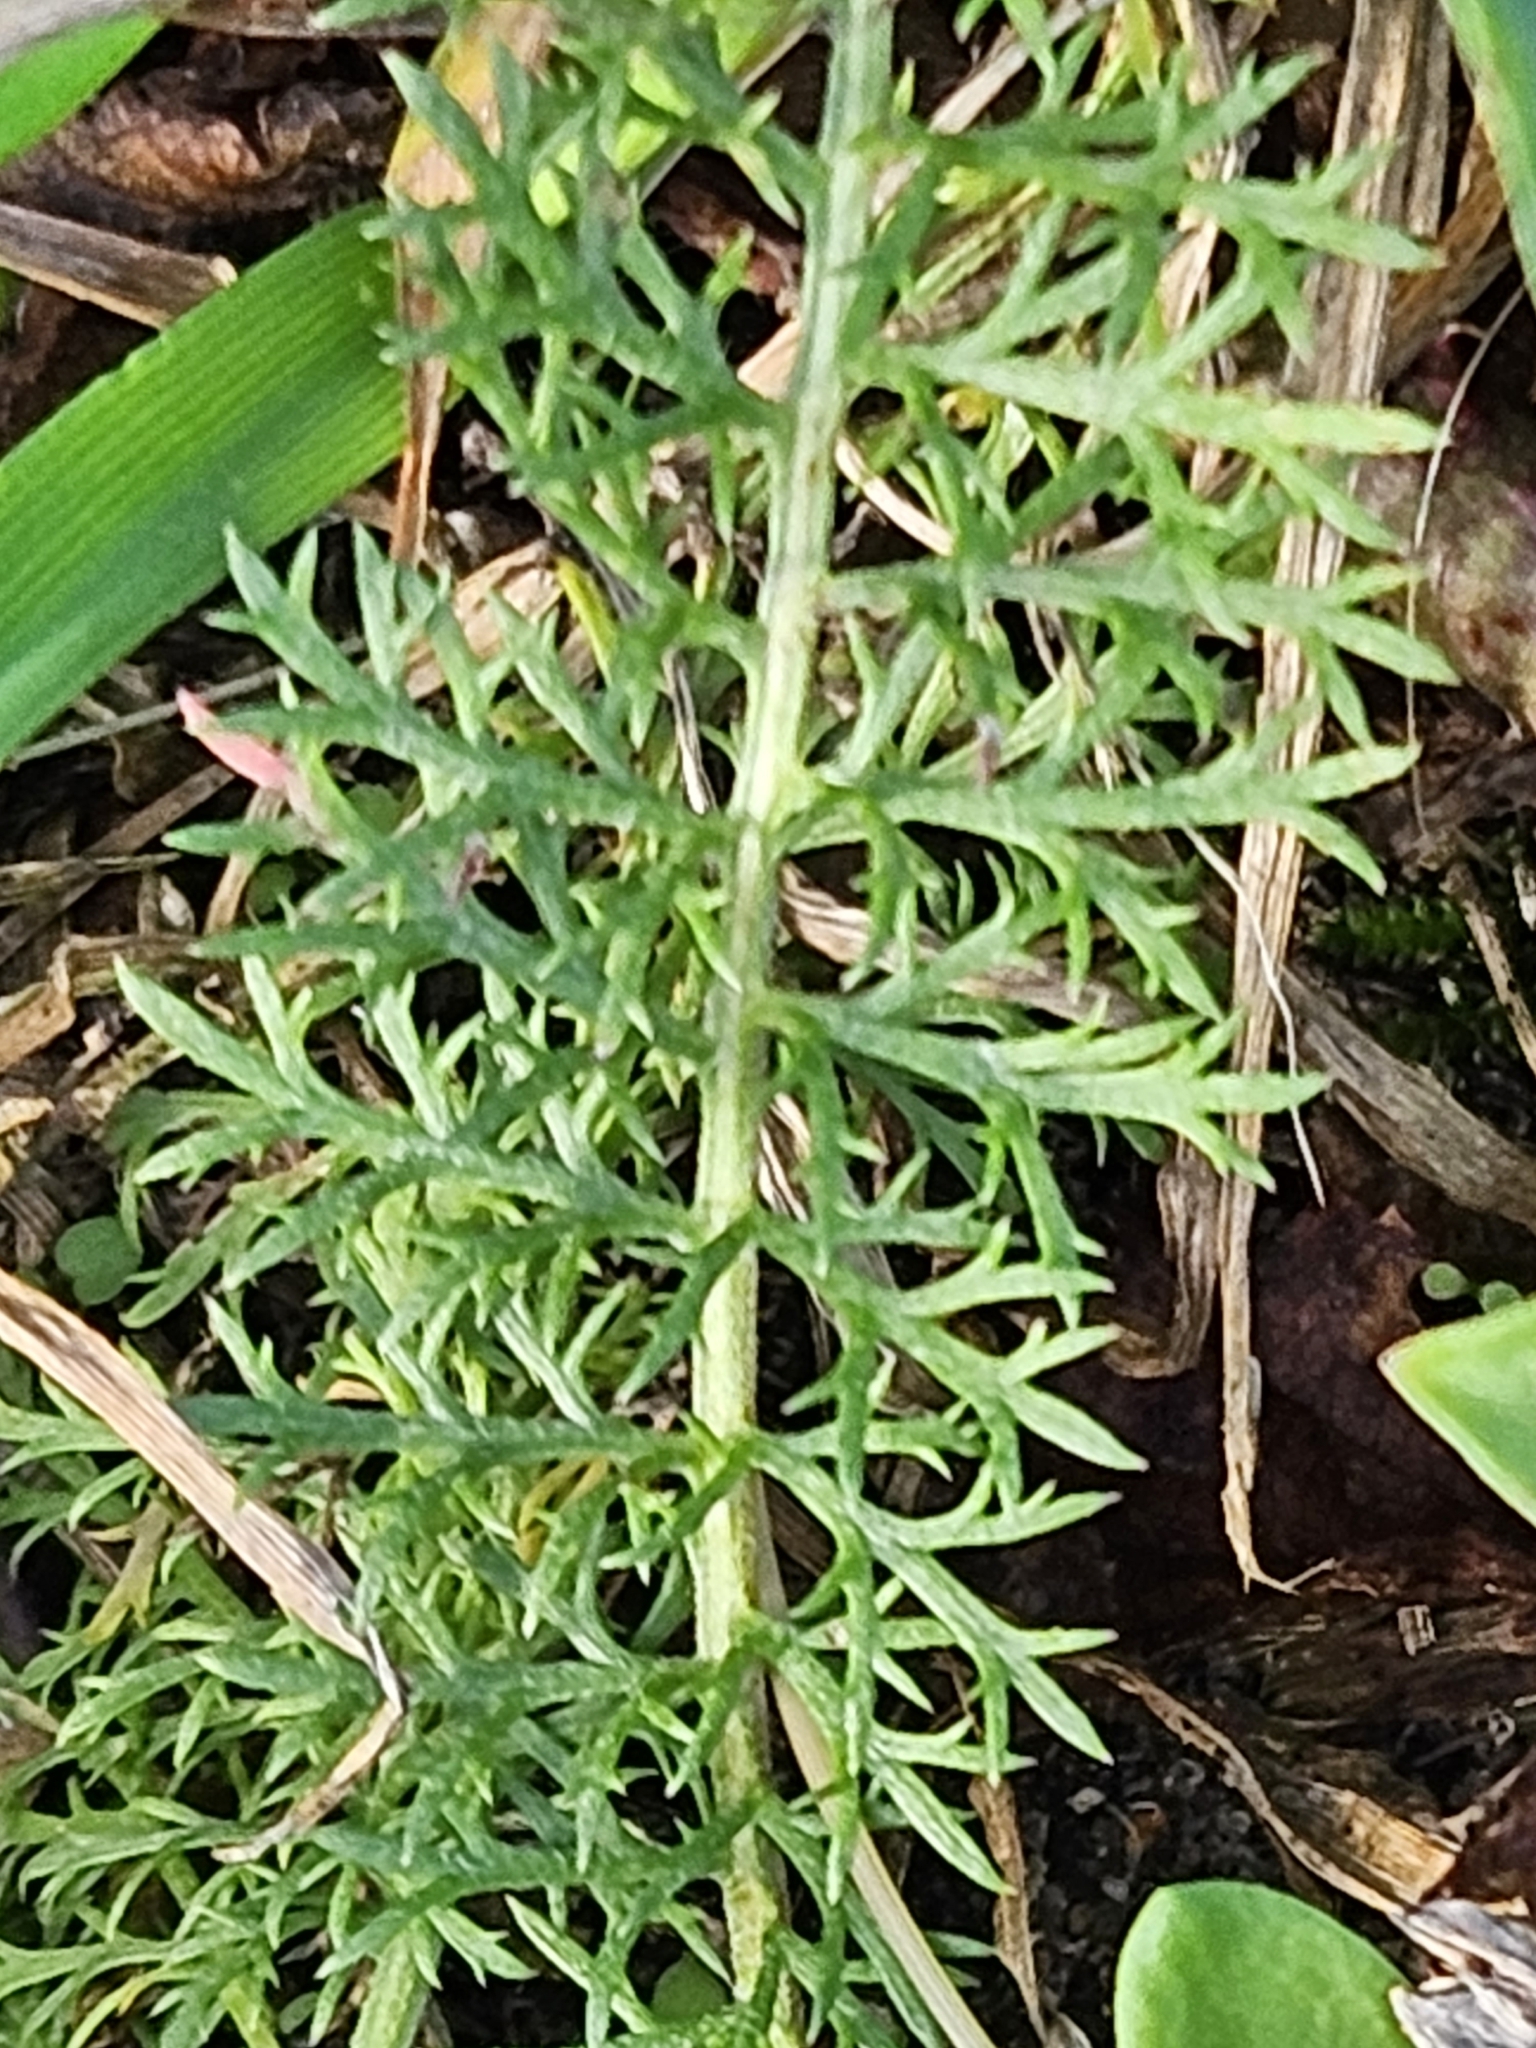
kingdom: Plantae
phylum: Tracheophyta
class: Magnoliopsida
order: Asterales
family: Asteraceae
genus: Achillea
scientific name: Achillea millefolium
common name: Yarrow
